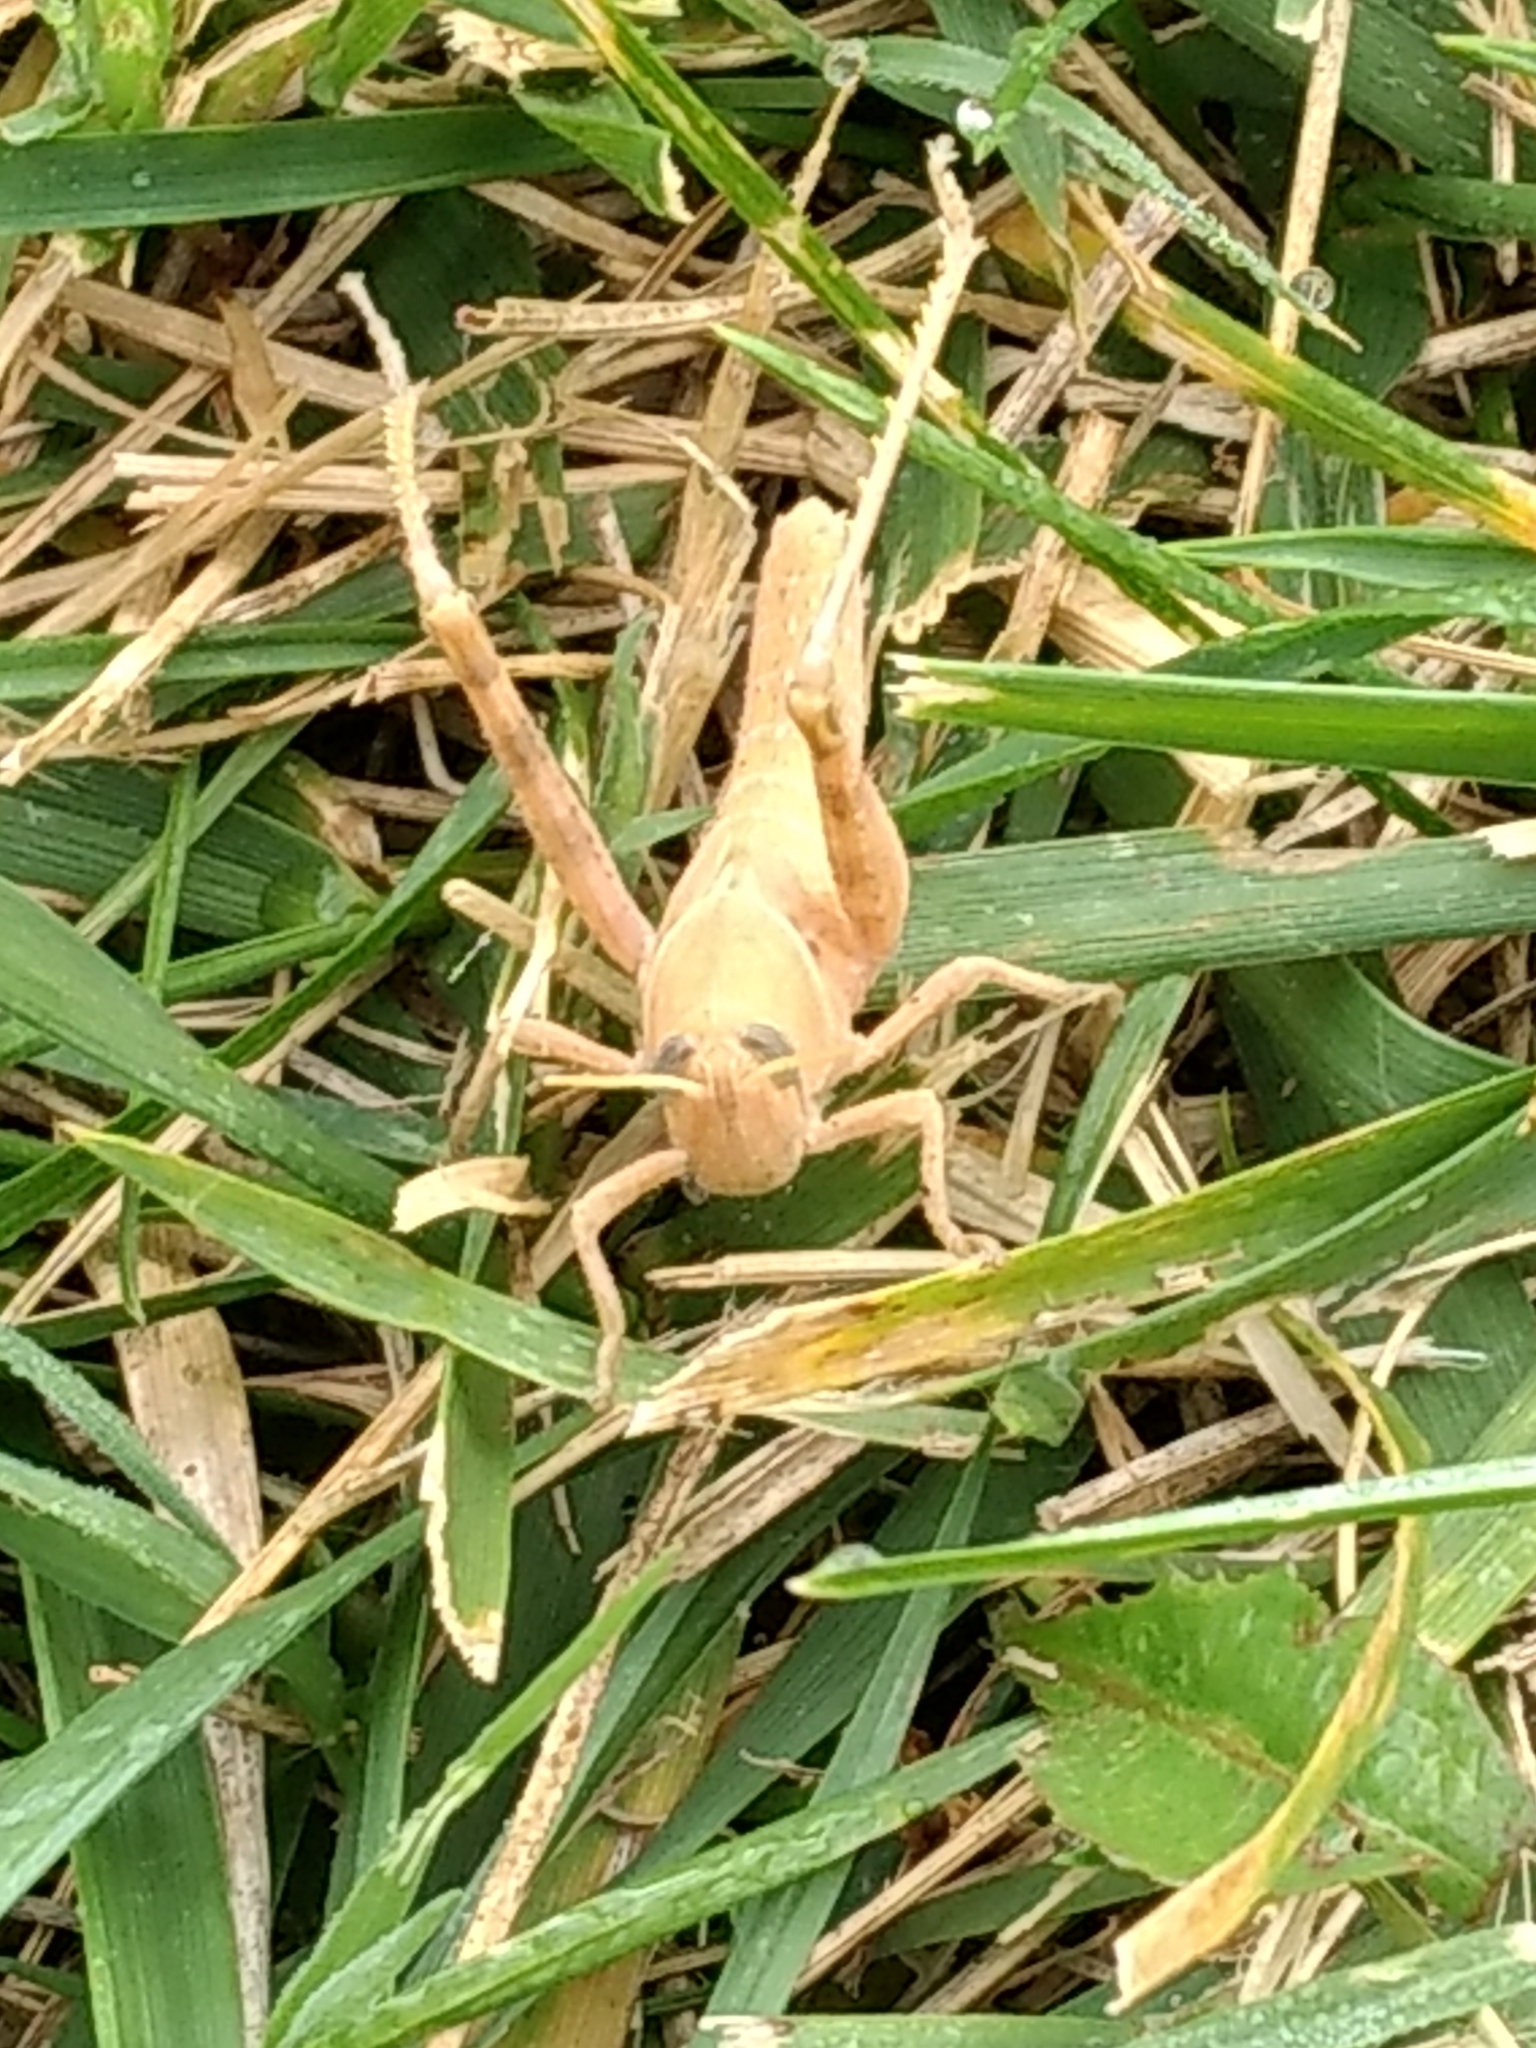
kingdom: Animalia
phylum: Arthropoda
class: Insecta
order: Orthoptera
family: Acrididae
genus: Schistocerca
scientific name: Schistocerca nitens
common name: Vagrant grasshopper
